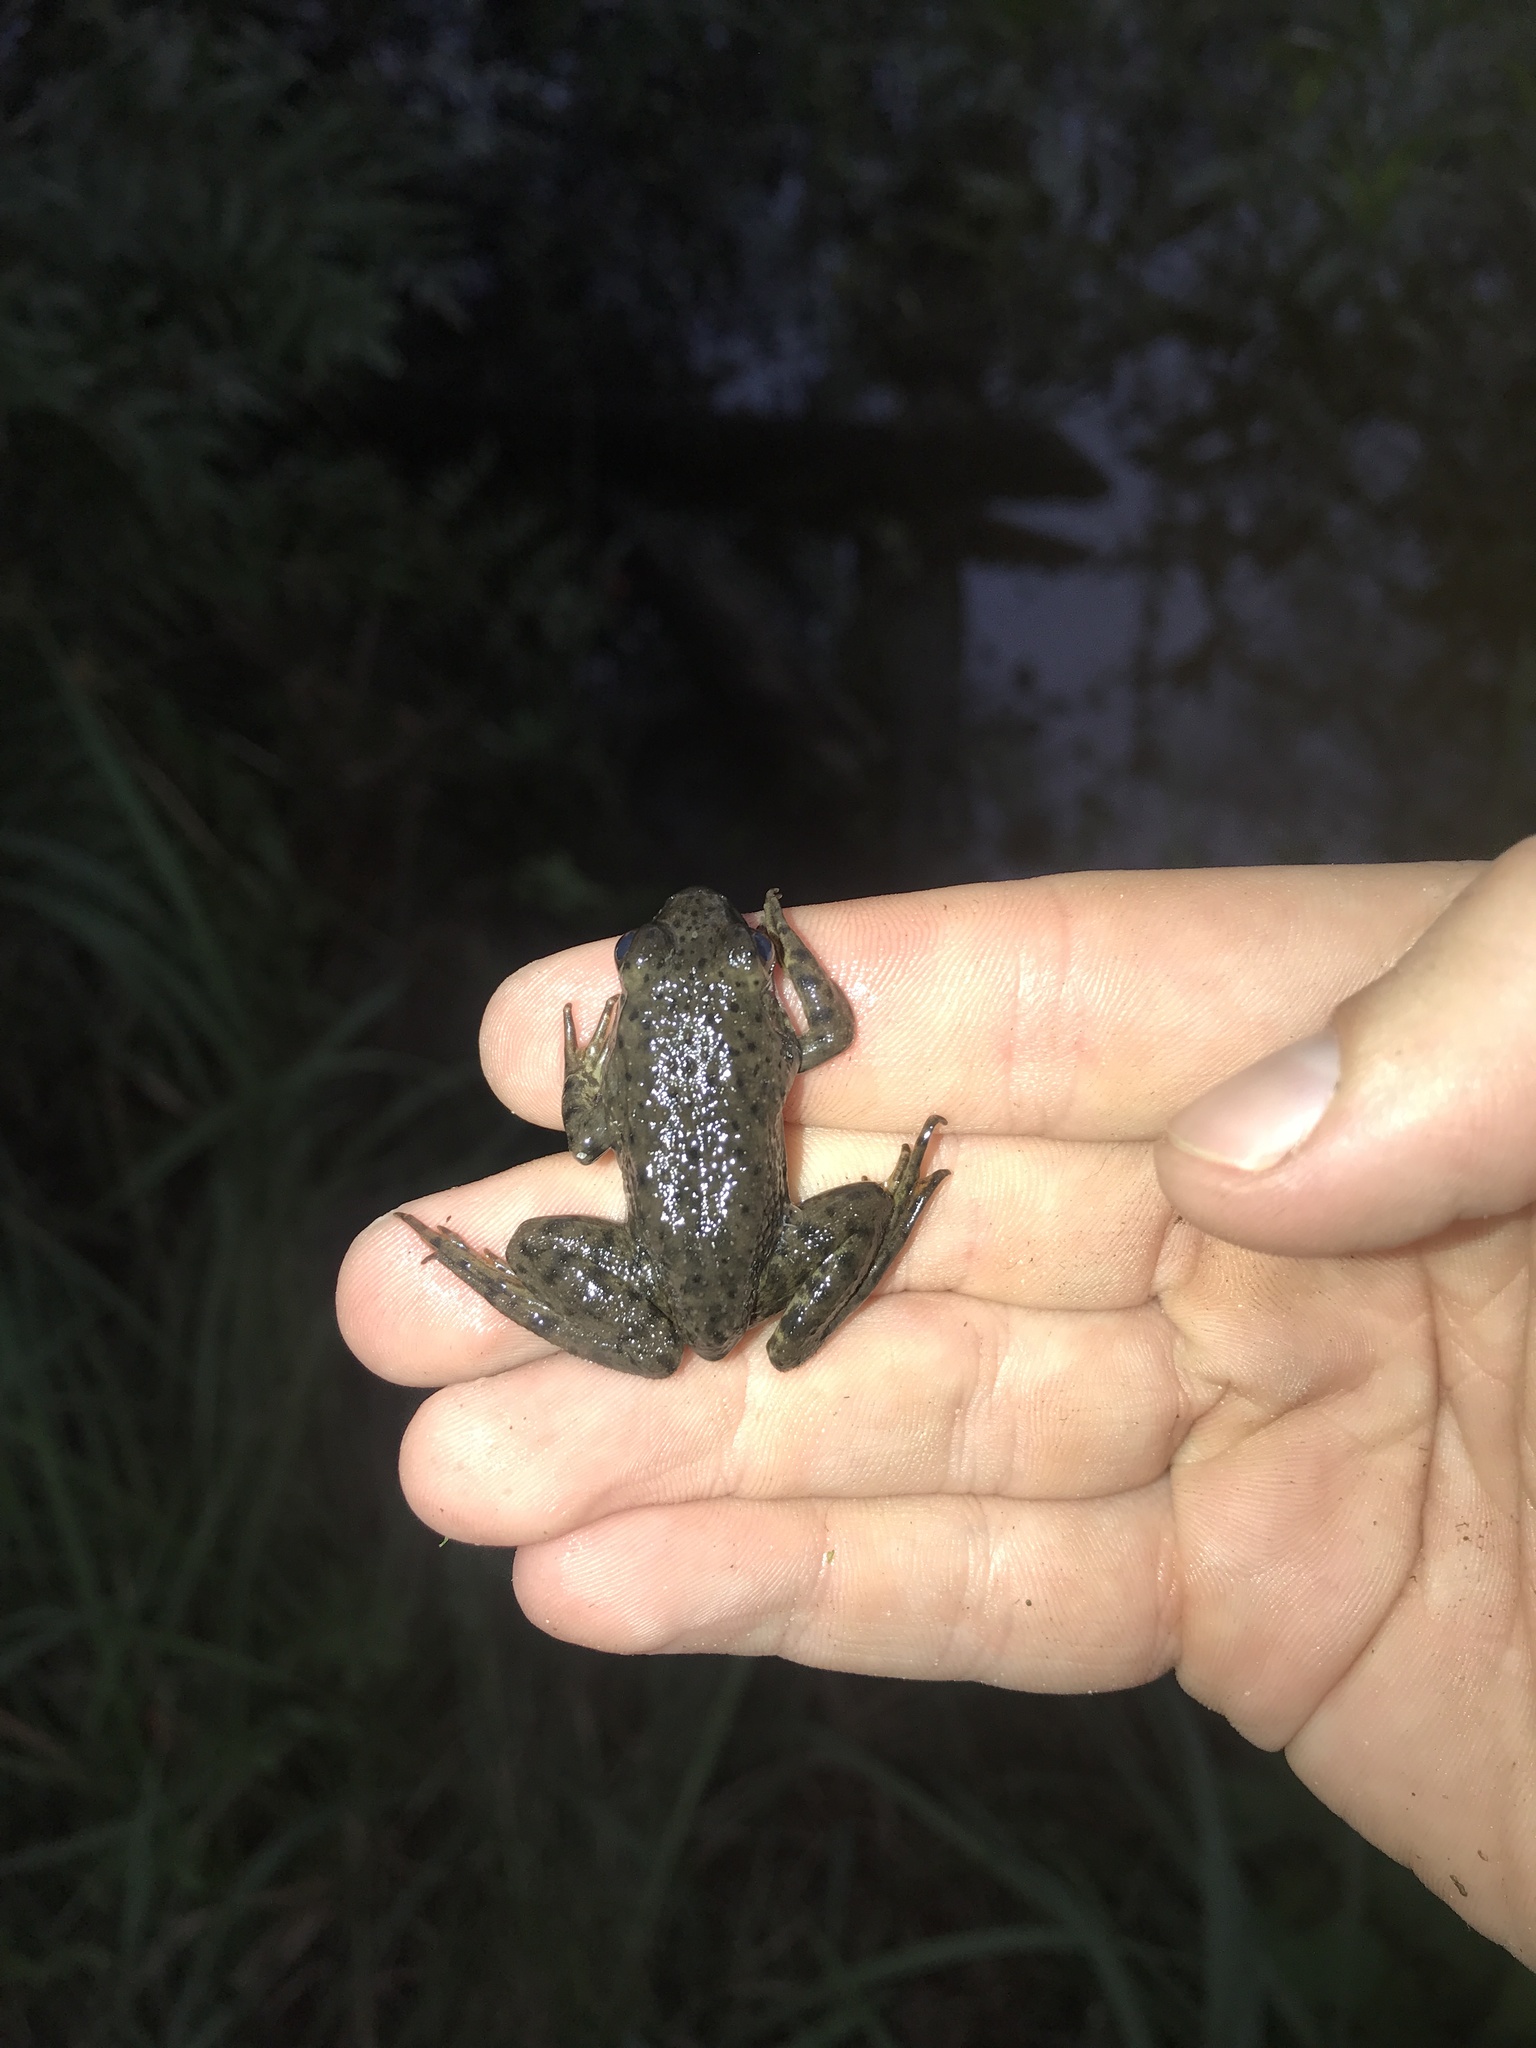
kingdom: Animalia
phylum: Chordata
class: Amphibia
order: Anura
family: Ranidae
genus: Lithobates
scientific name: Lithobates clamitans
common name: Green frog
